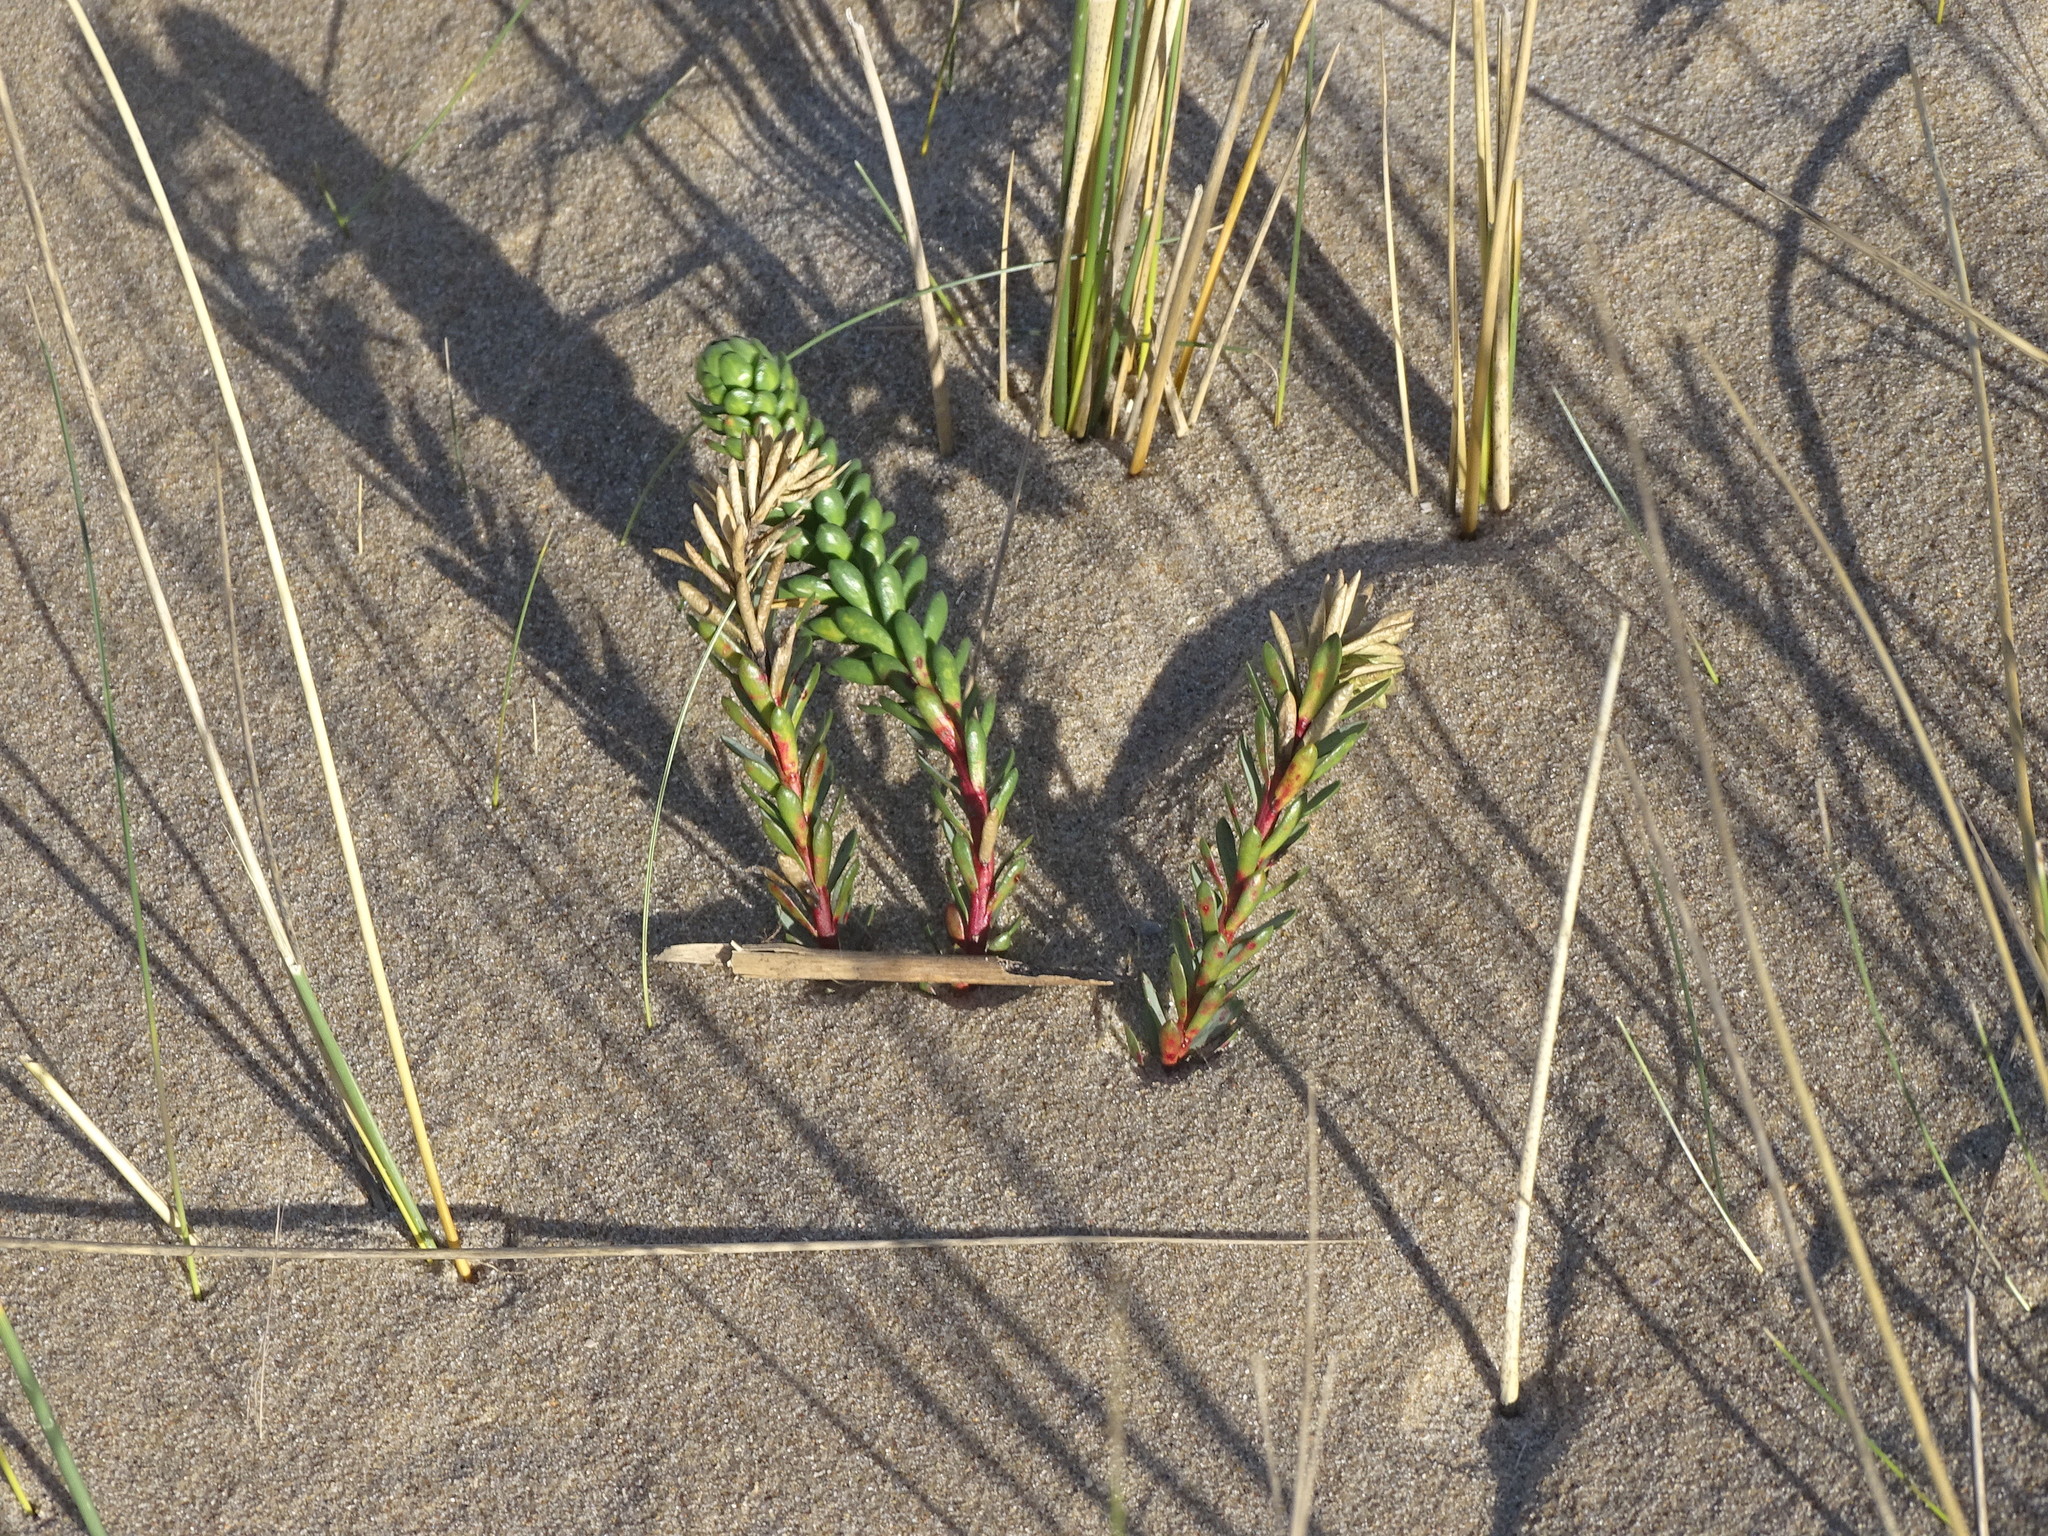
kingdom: Plantae
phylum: Tracheophyta
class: Magnoliopsida
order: Malpighiales
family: Euphorbiaceae
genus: Euphorbia
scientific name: Euphorbia paralias
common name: Sea spurge
